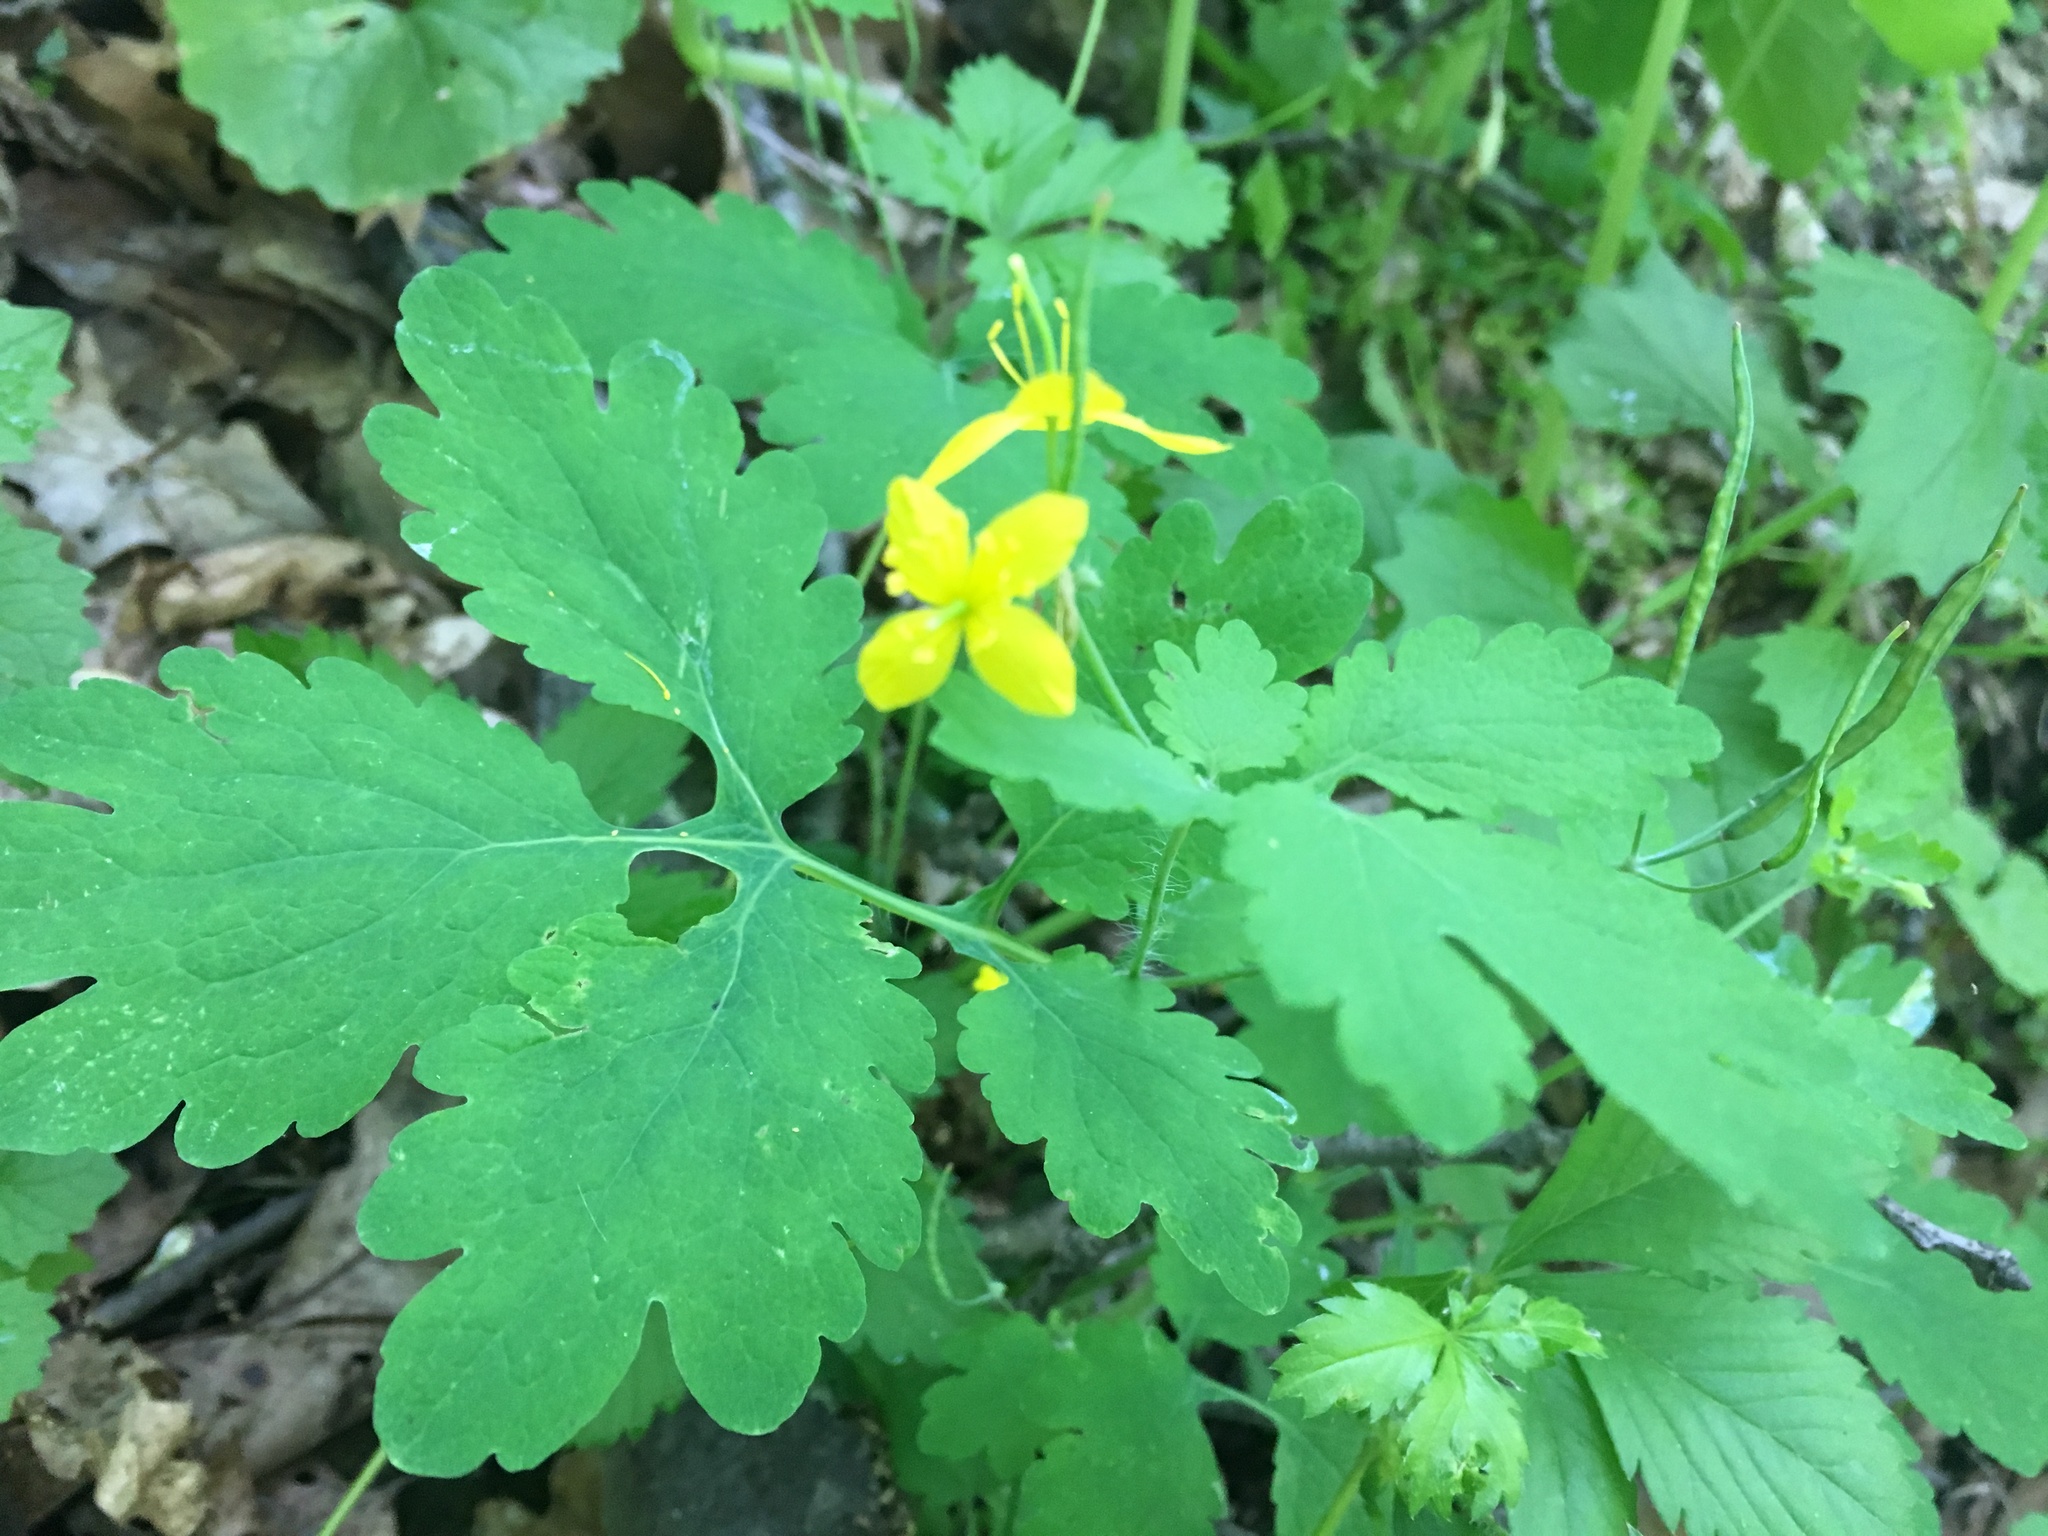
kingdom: Plantae
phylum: Tracheophyta
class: Magnoliopsida
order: Ranunculales
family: Papaveraceae
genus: Chelidonium
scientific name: Chelidonium majus
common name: Greater celandine
